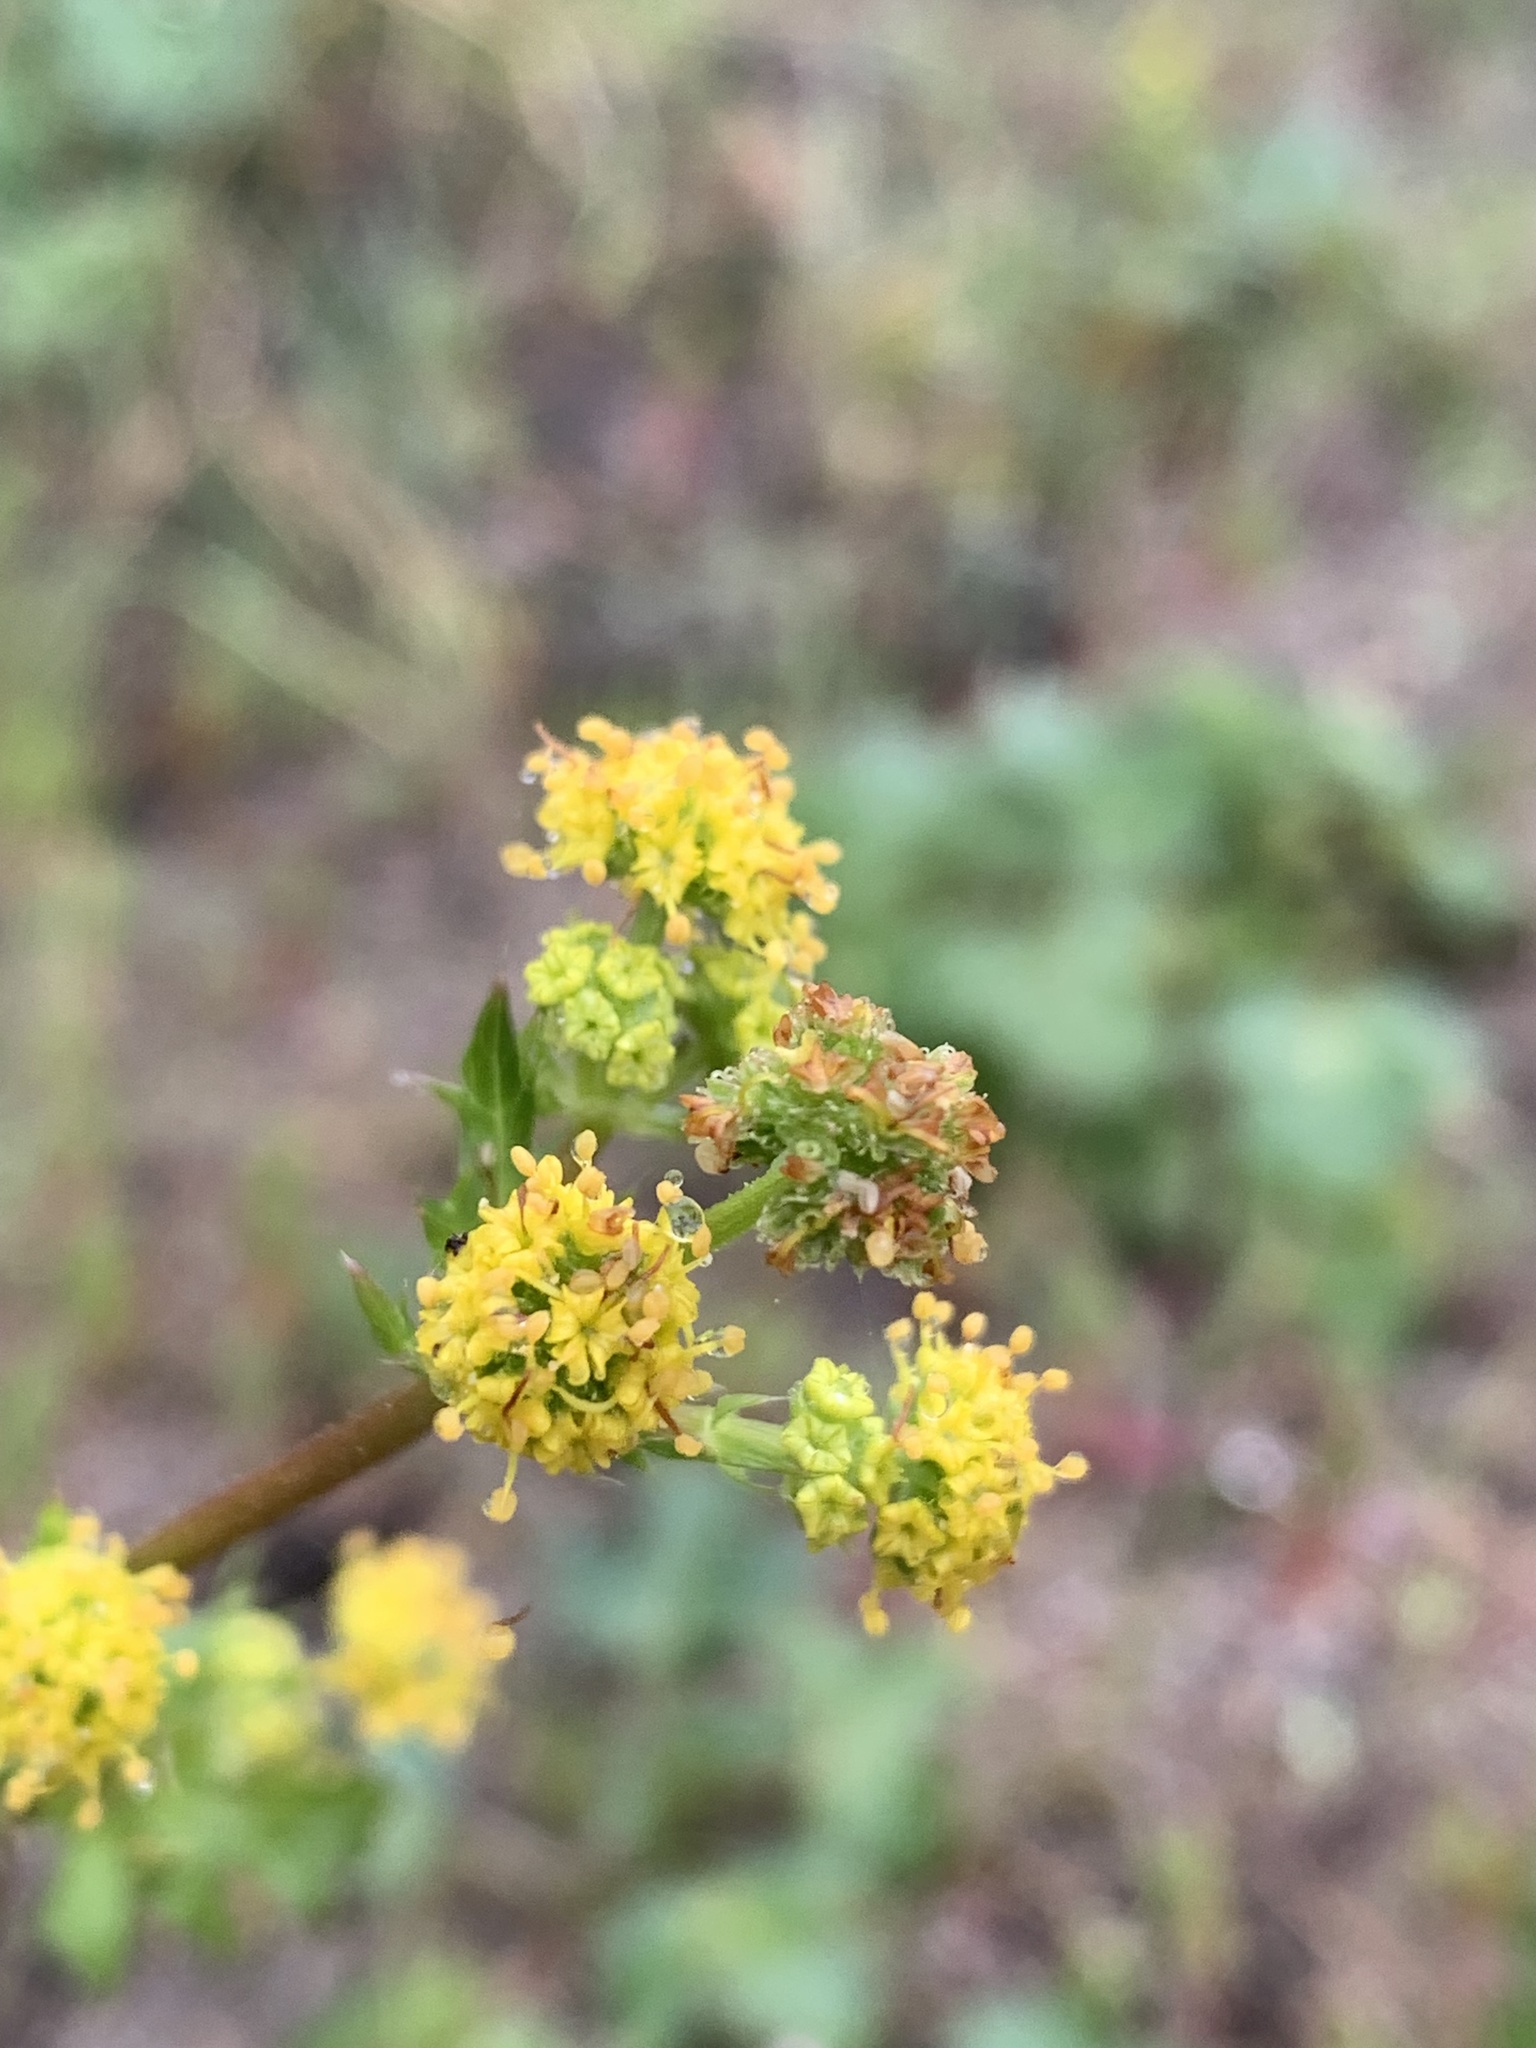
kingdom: Plantae
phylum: Tracheophyta
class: Magnoliopsida
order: Apiales
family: Apiaceae
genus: Sanicula
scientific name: Sanicula crassicaulis
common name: Western snakeroot
